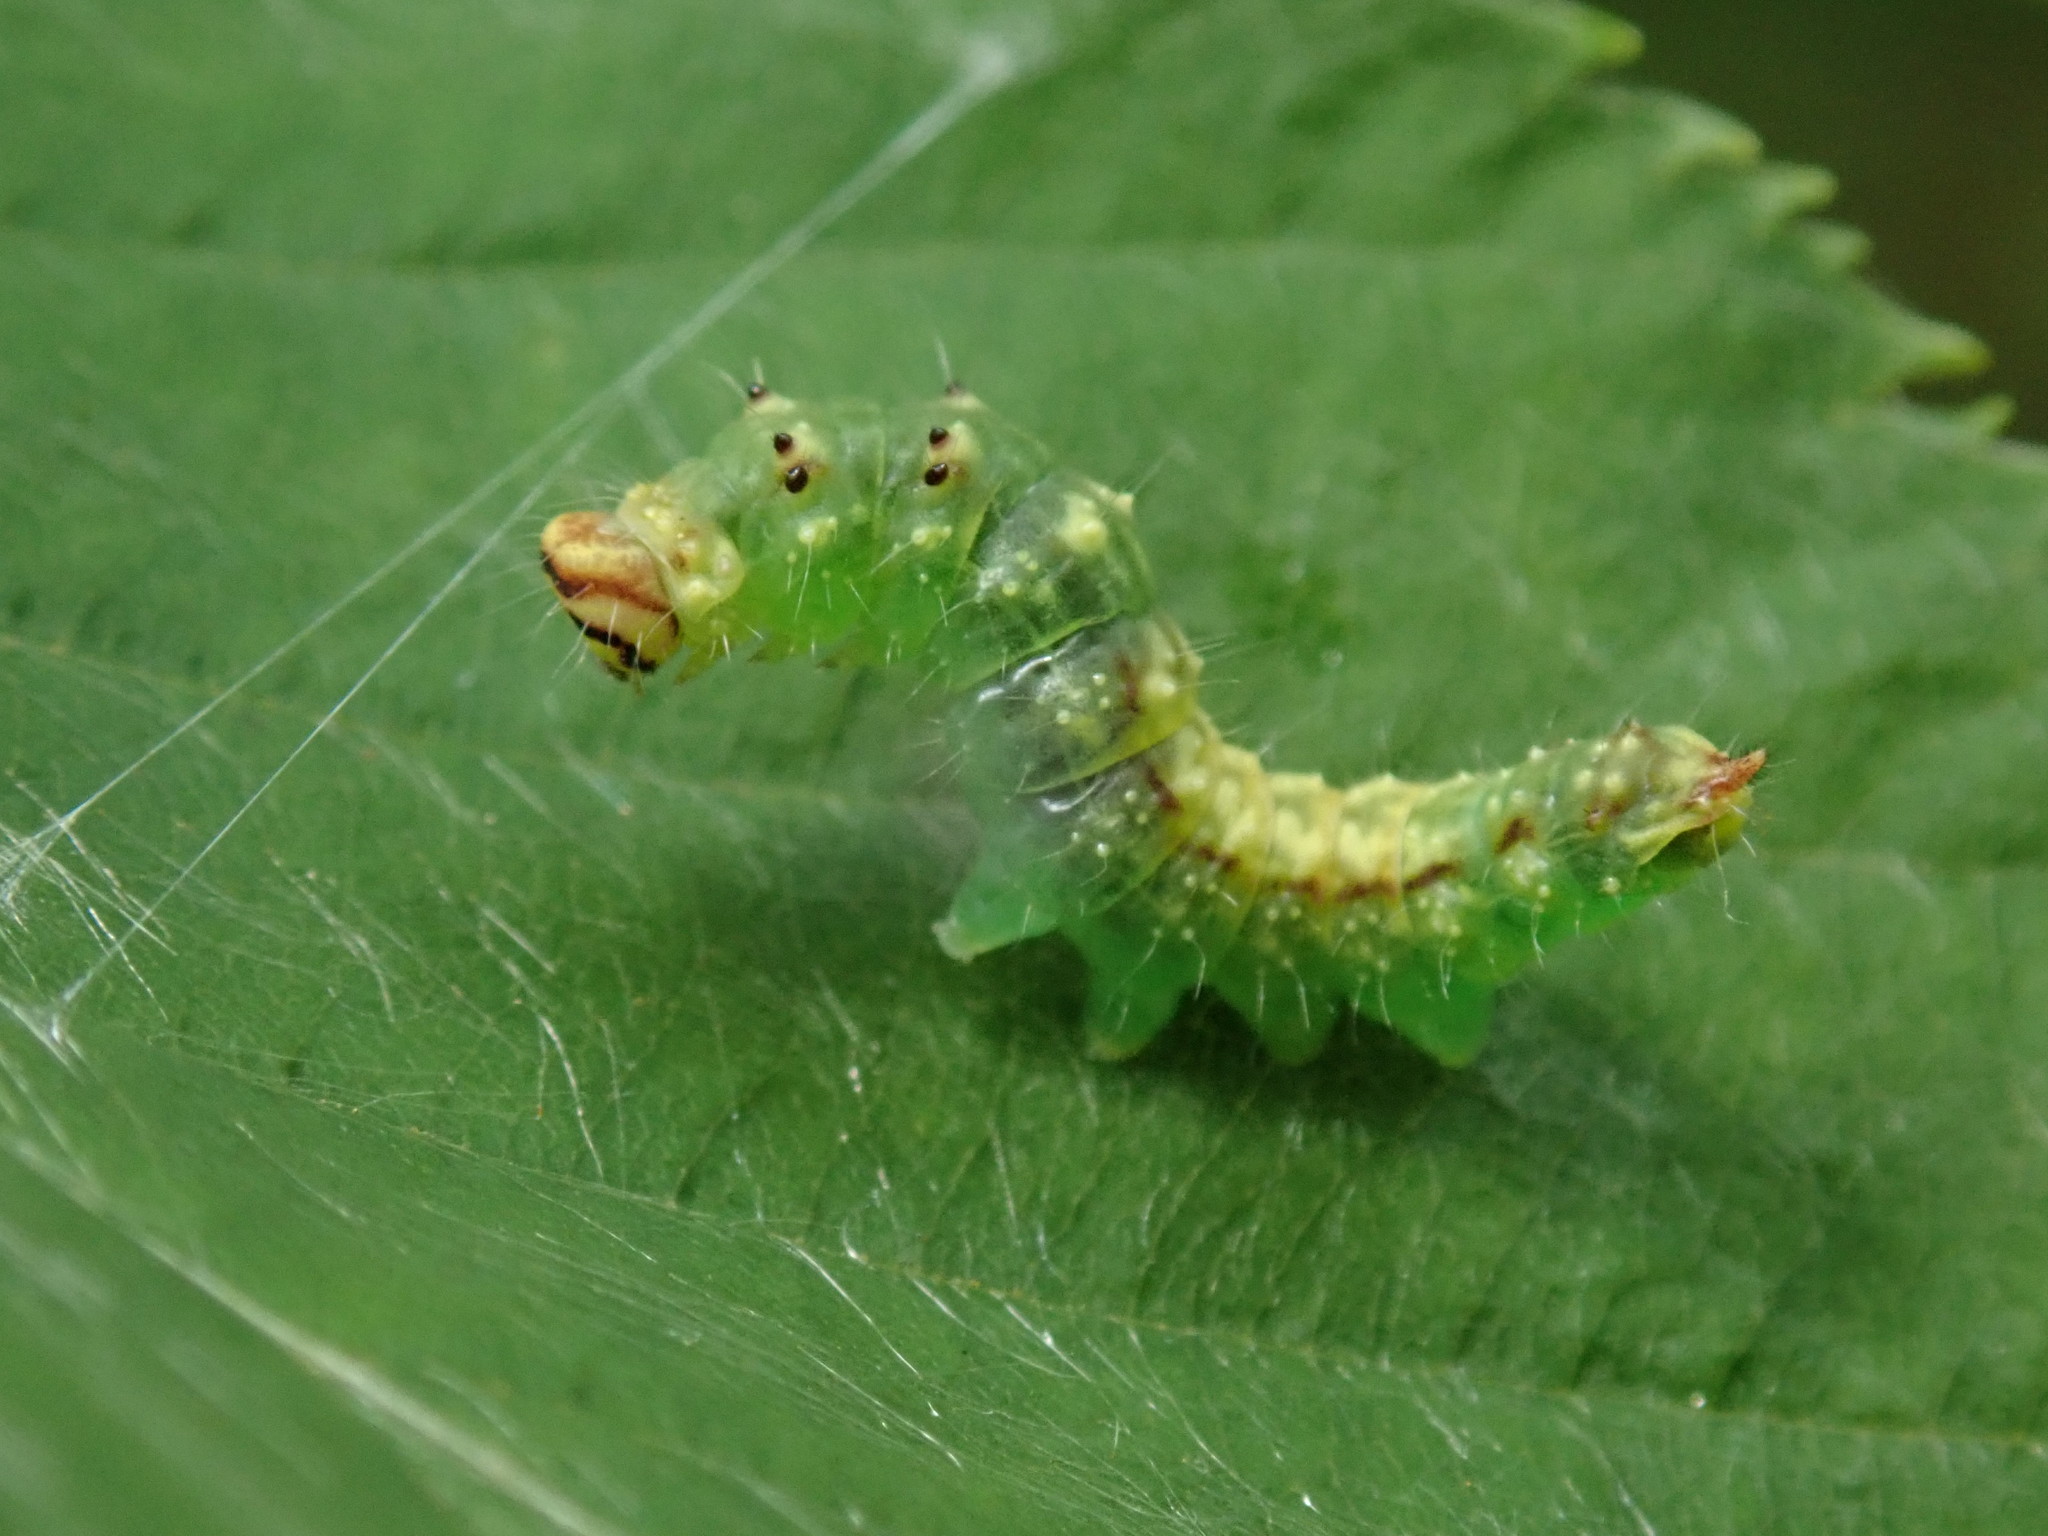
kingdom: Animalia
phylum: Arthropoda
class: Insecta
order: Lepidoptera
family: Drepanidae
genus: Drepana
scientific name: Drepana arcuata
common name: Arched hooktip moth
